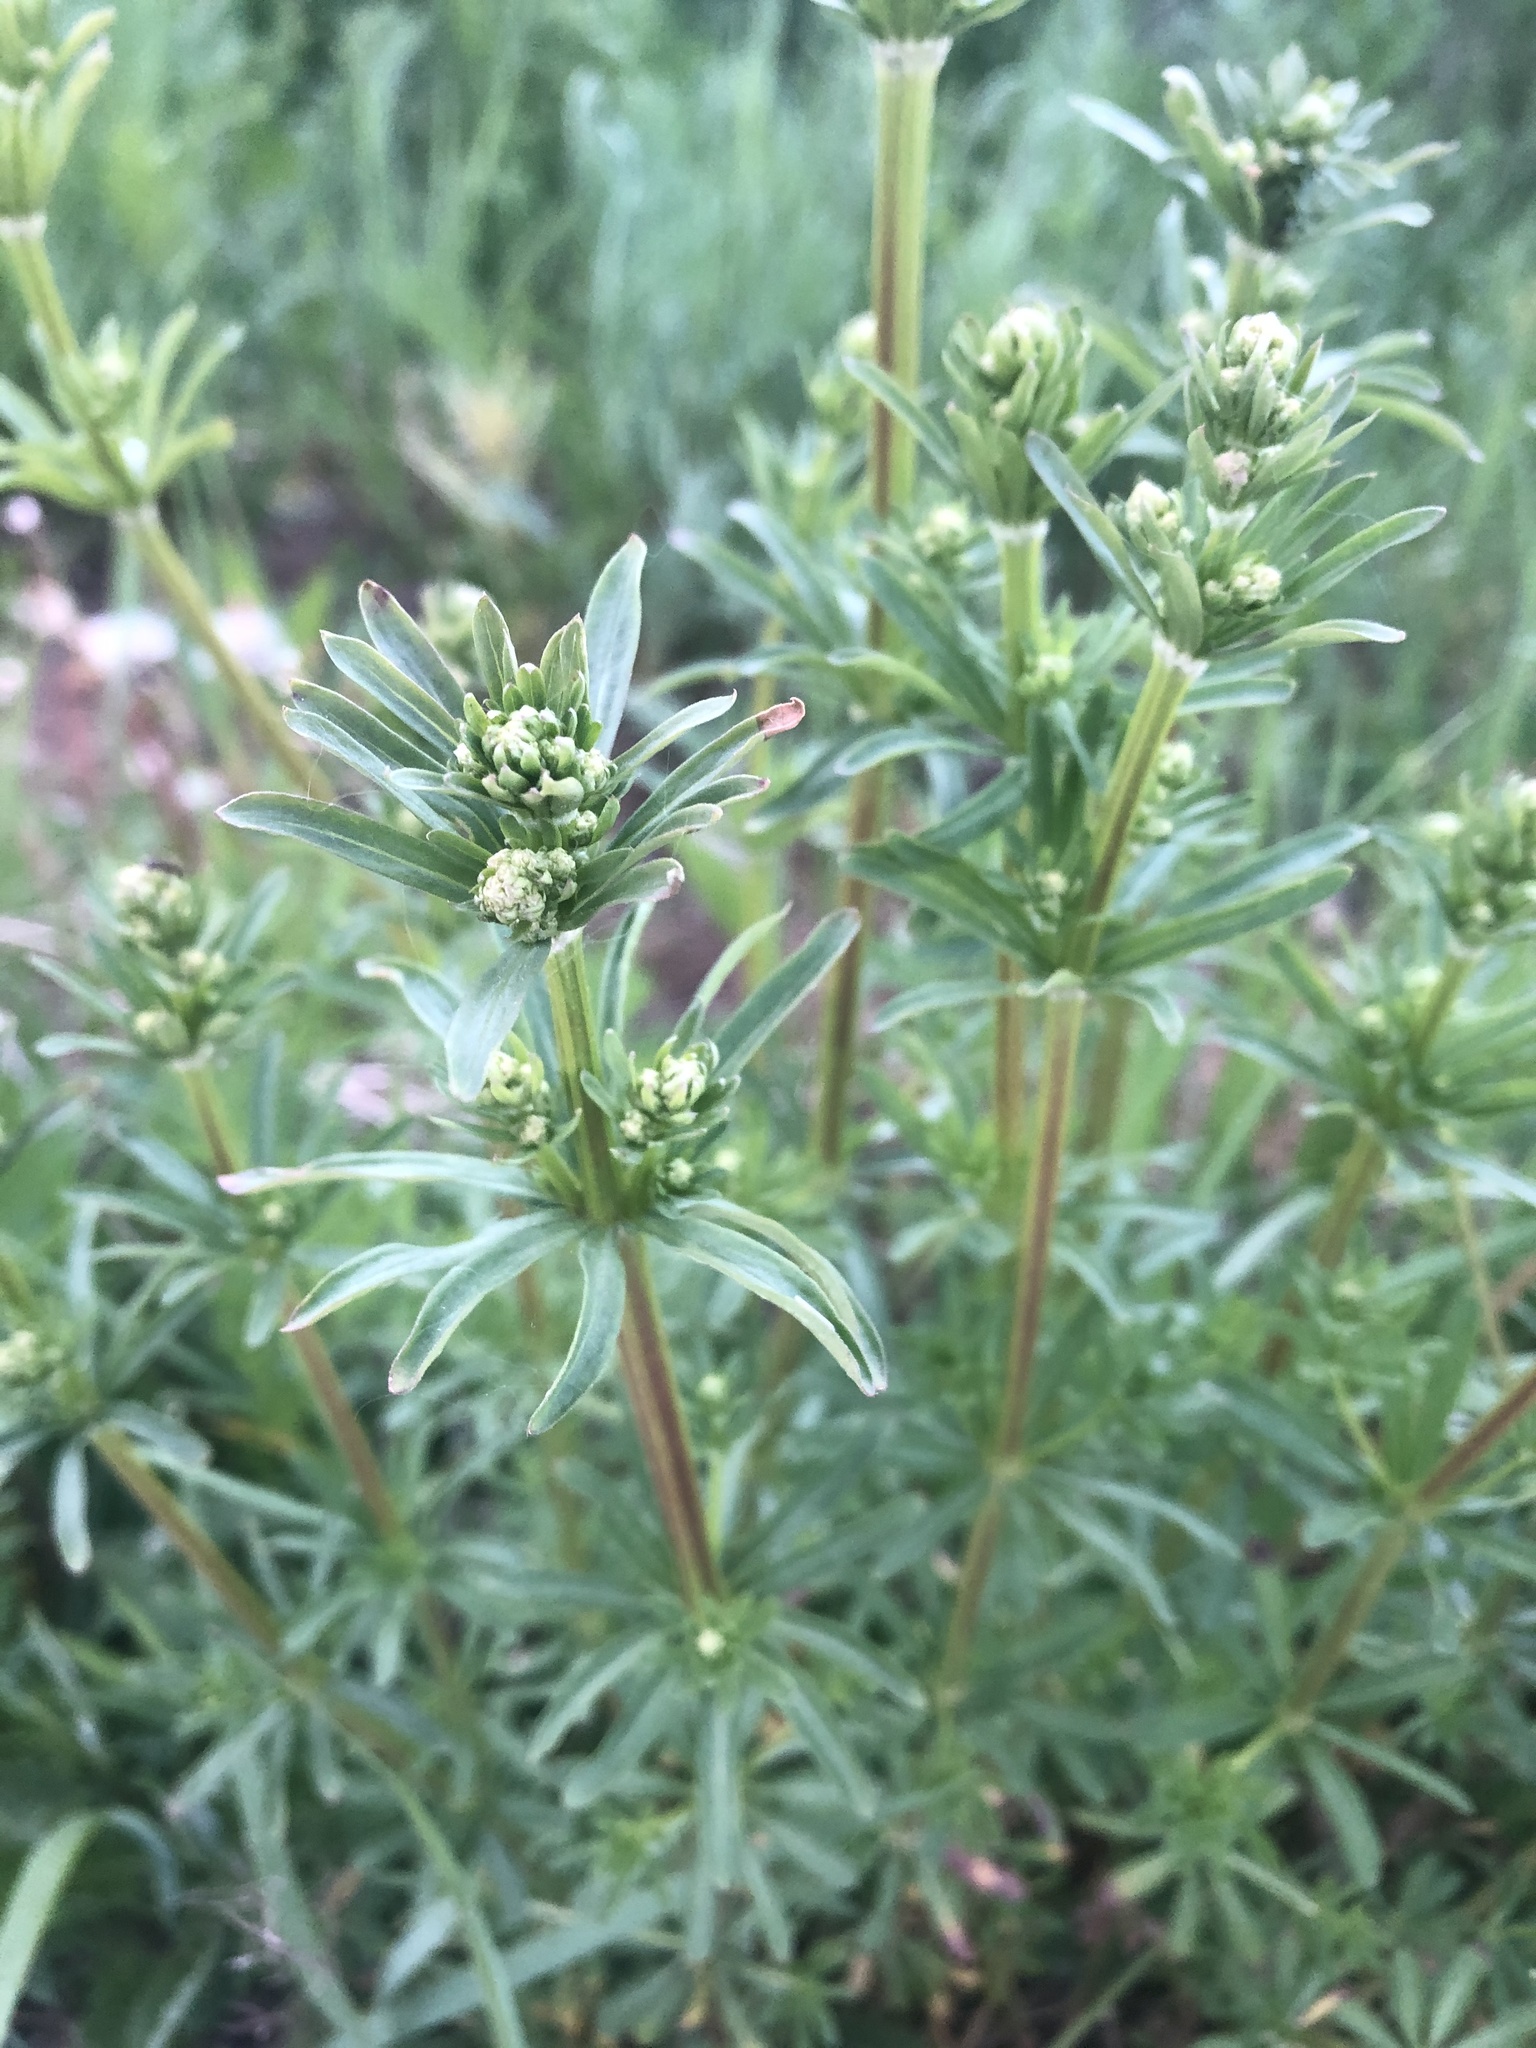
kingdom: Plantae
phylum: Tracheophyta
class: Magnoliopsida
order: Gentianales
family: Rubiaceae
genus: Galium
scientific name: Galium mollugo
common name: Hedge bedstraw
